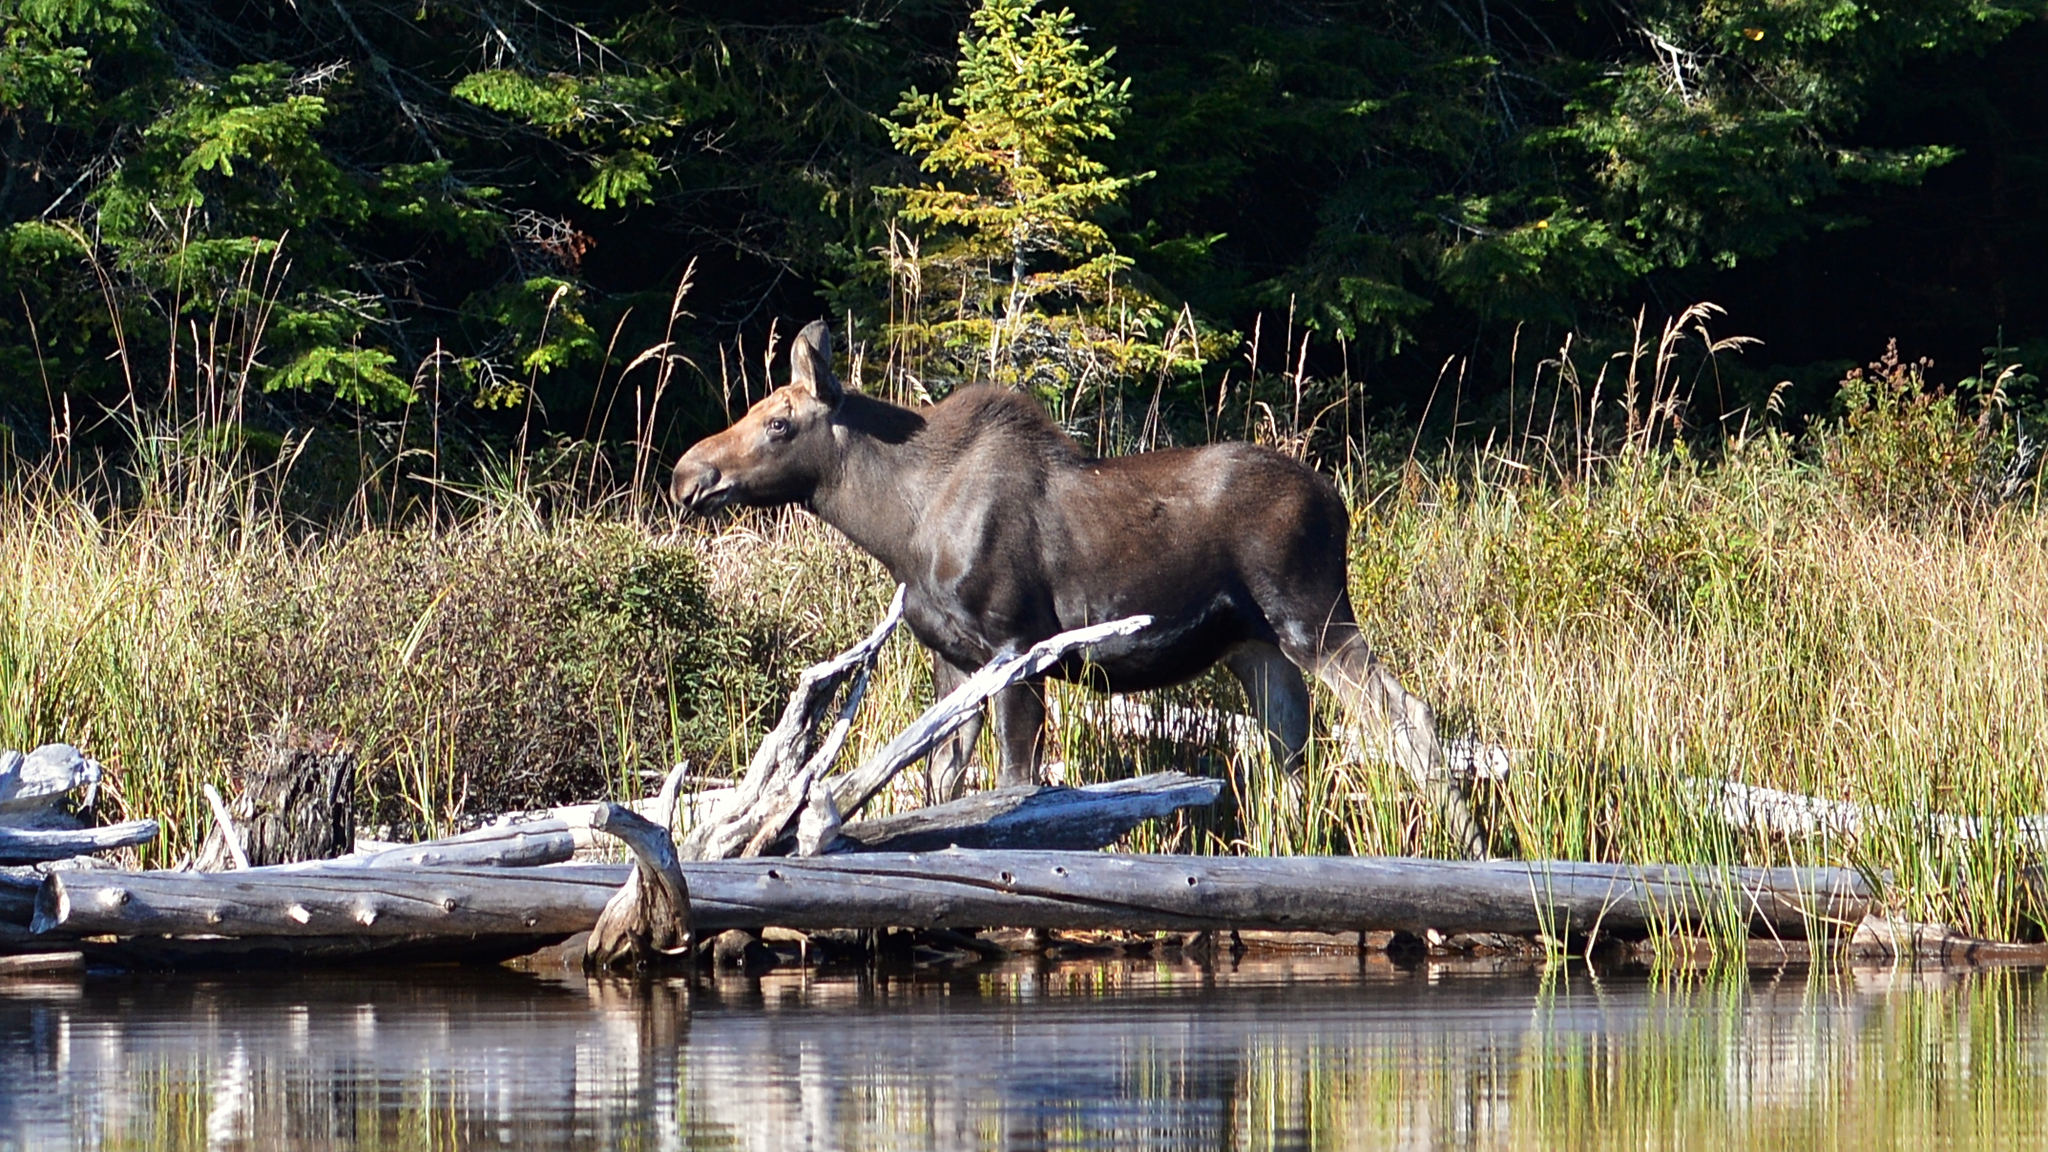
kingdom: Animalia
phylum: Chordata
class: Mammalia
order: Artiodactyla
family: Cervidae
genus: Alces
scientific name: Alces alces
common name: Moose
